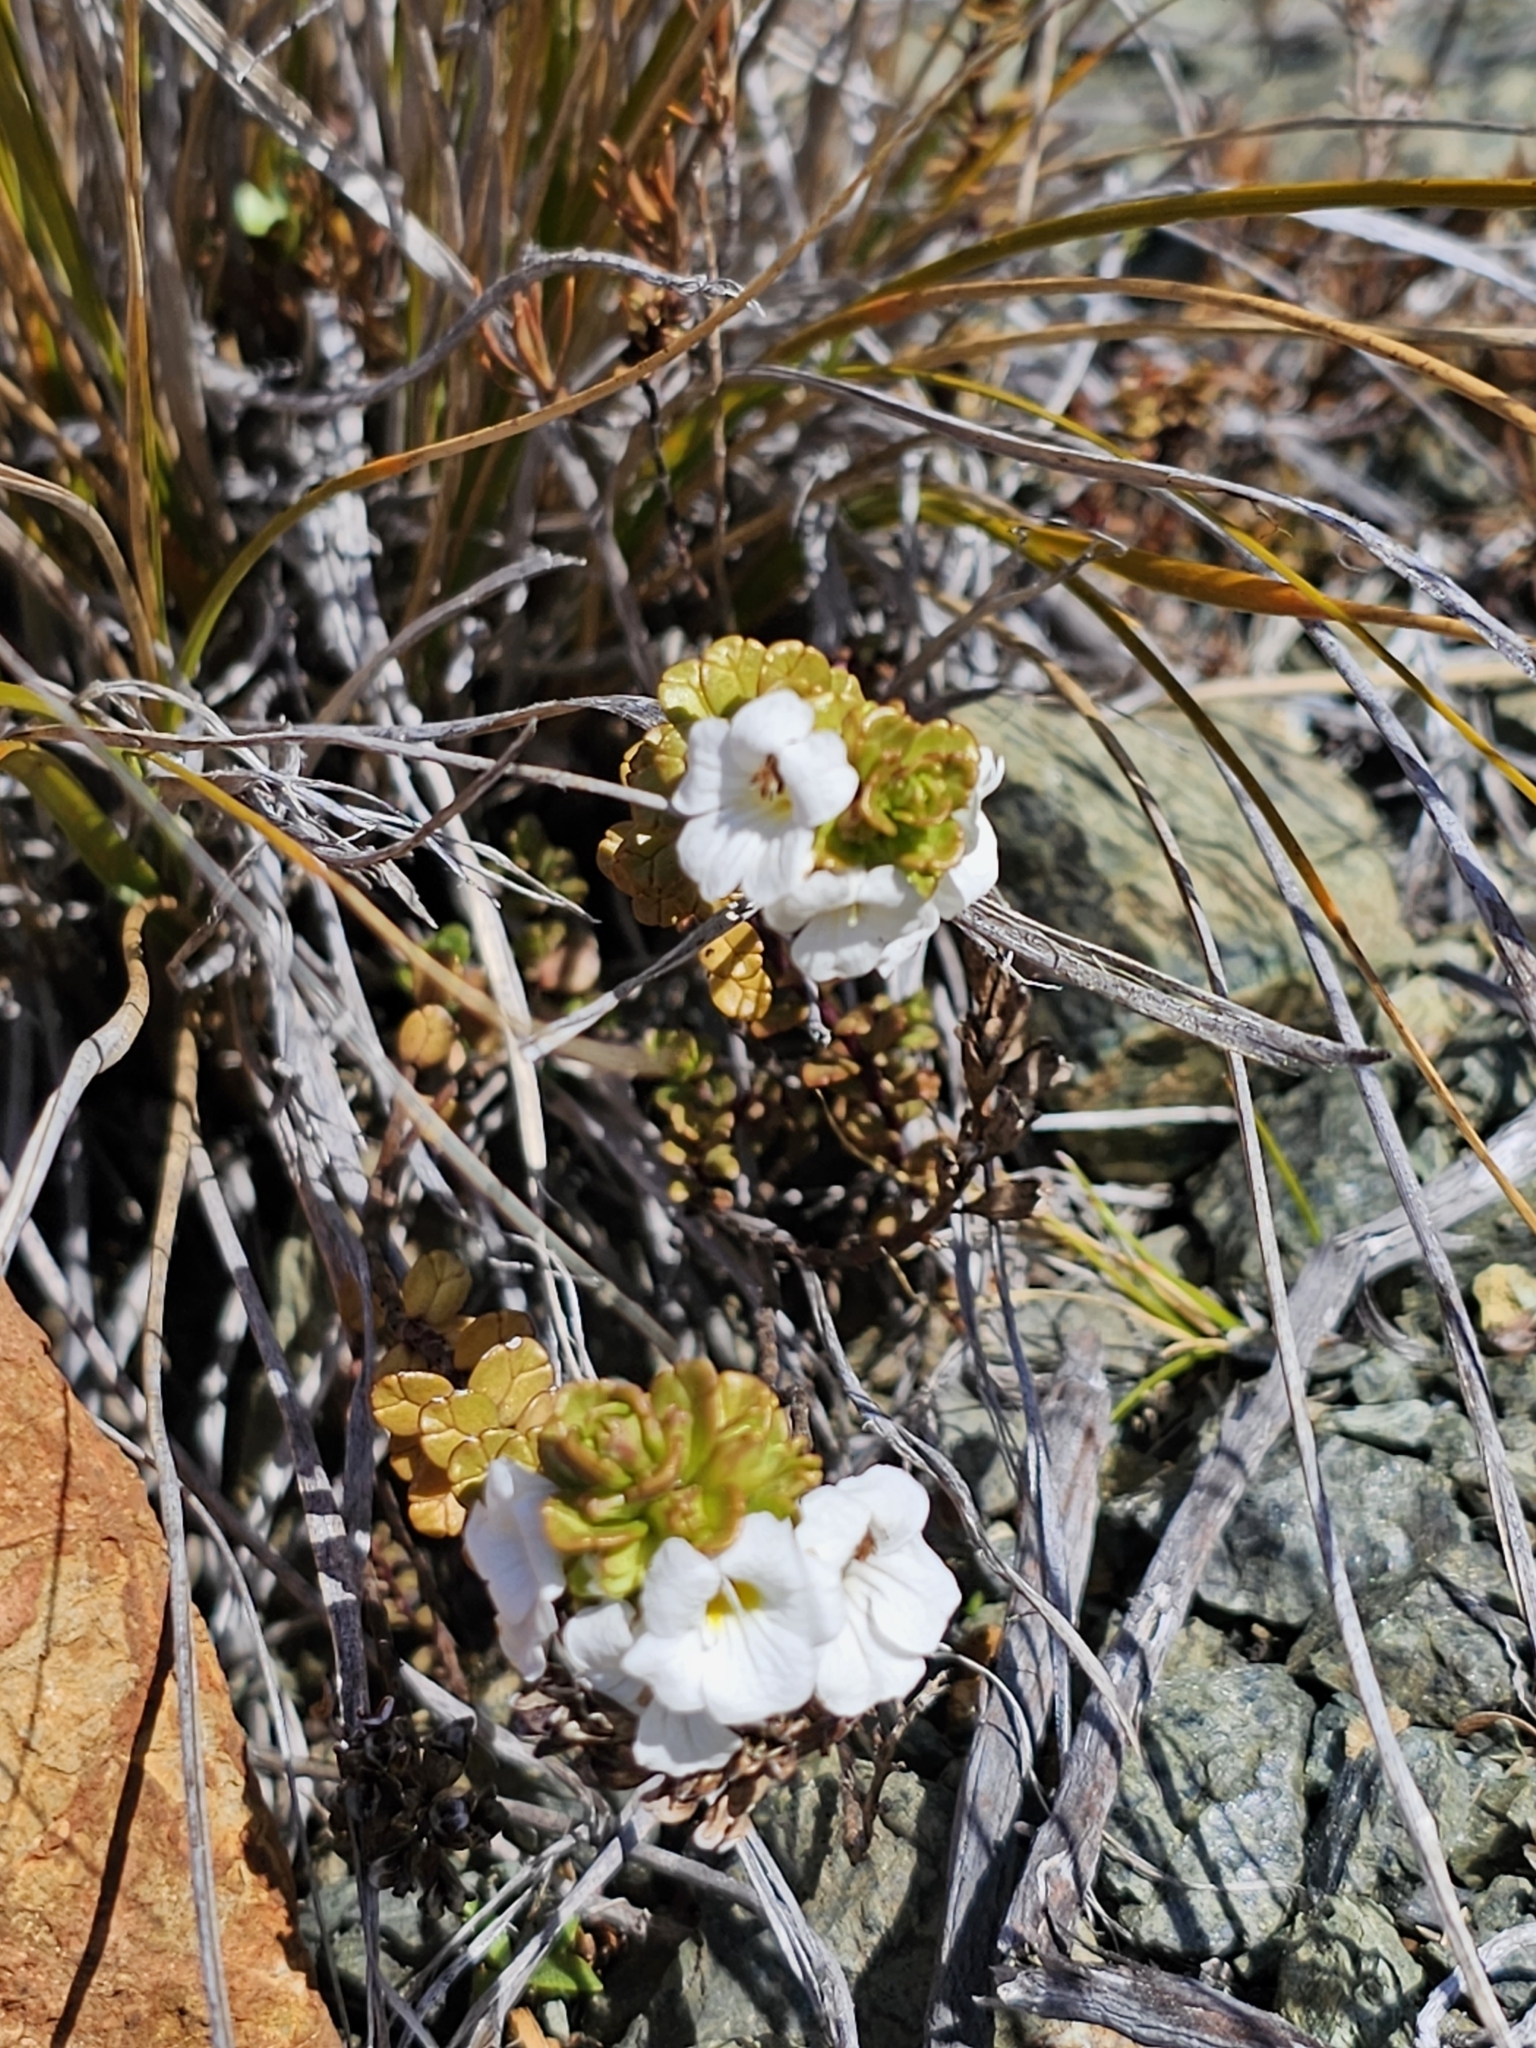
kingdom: Plantae
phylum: Tracheophyta
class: Magnoliopsida
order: Lamiales
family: Orobanchaceae
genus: Euphrasia
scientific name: Euphrasia monroi
